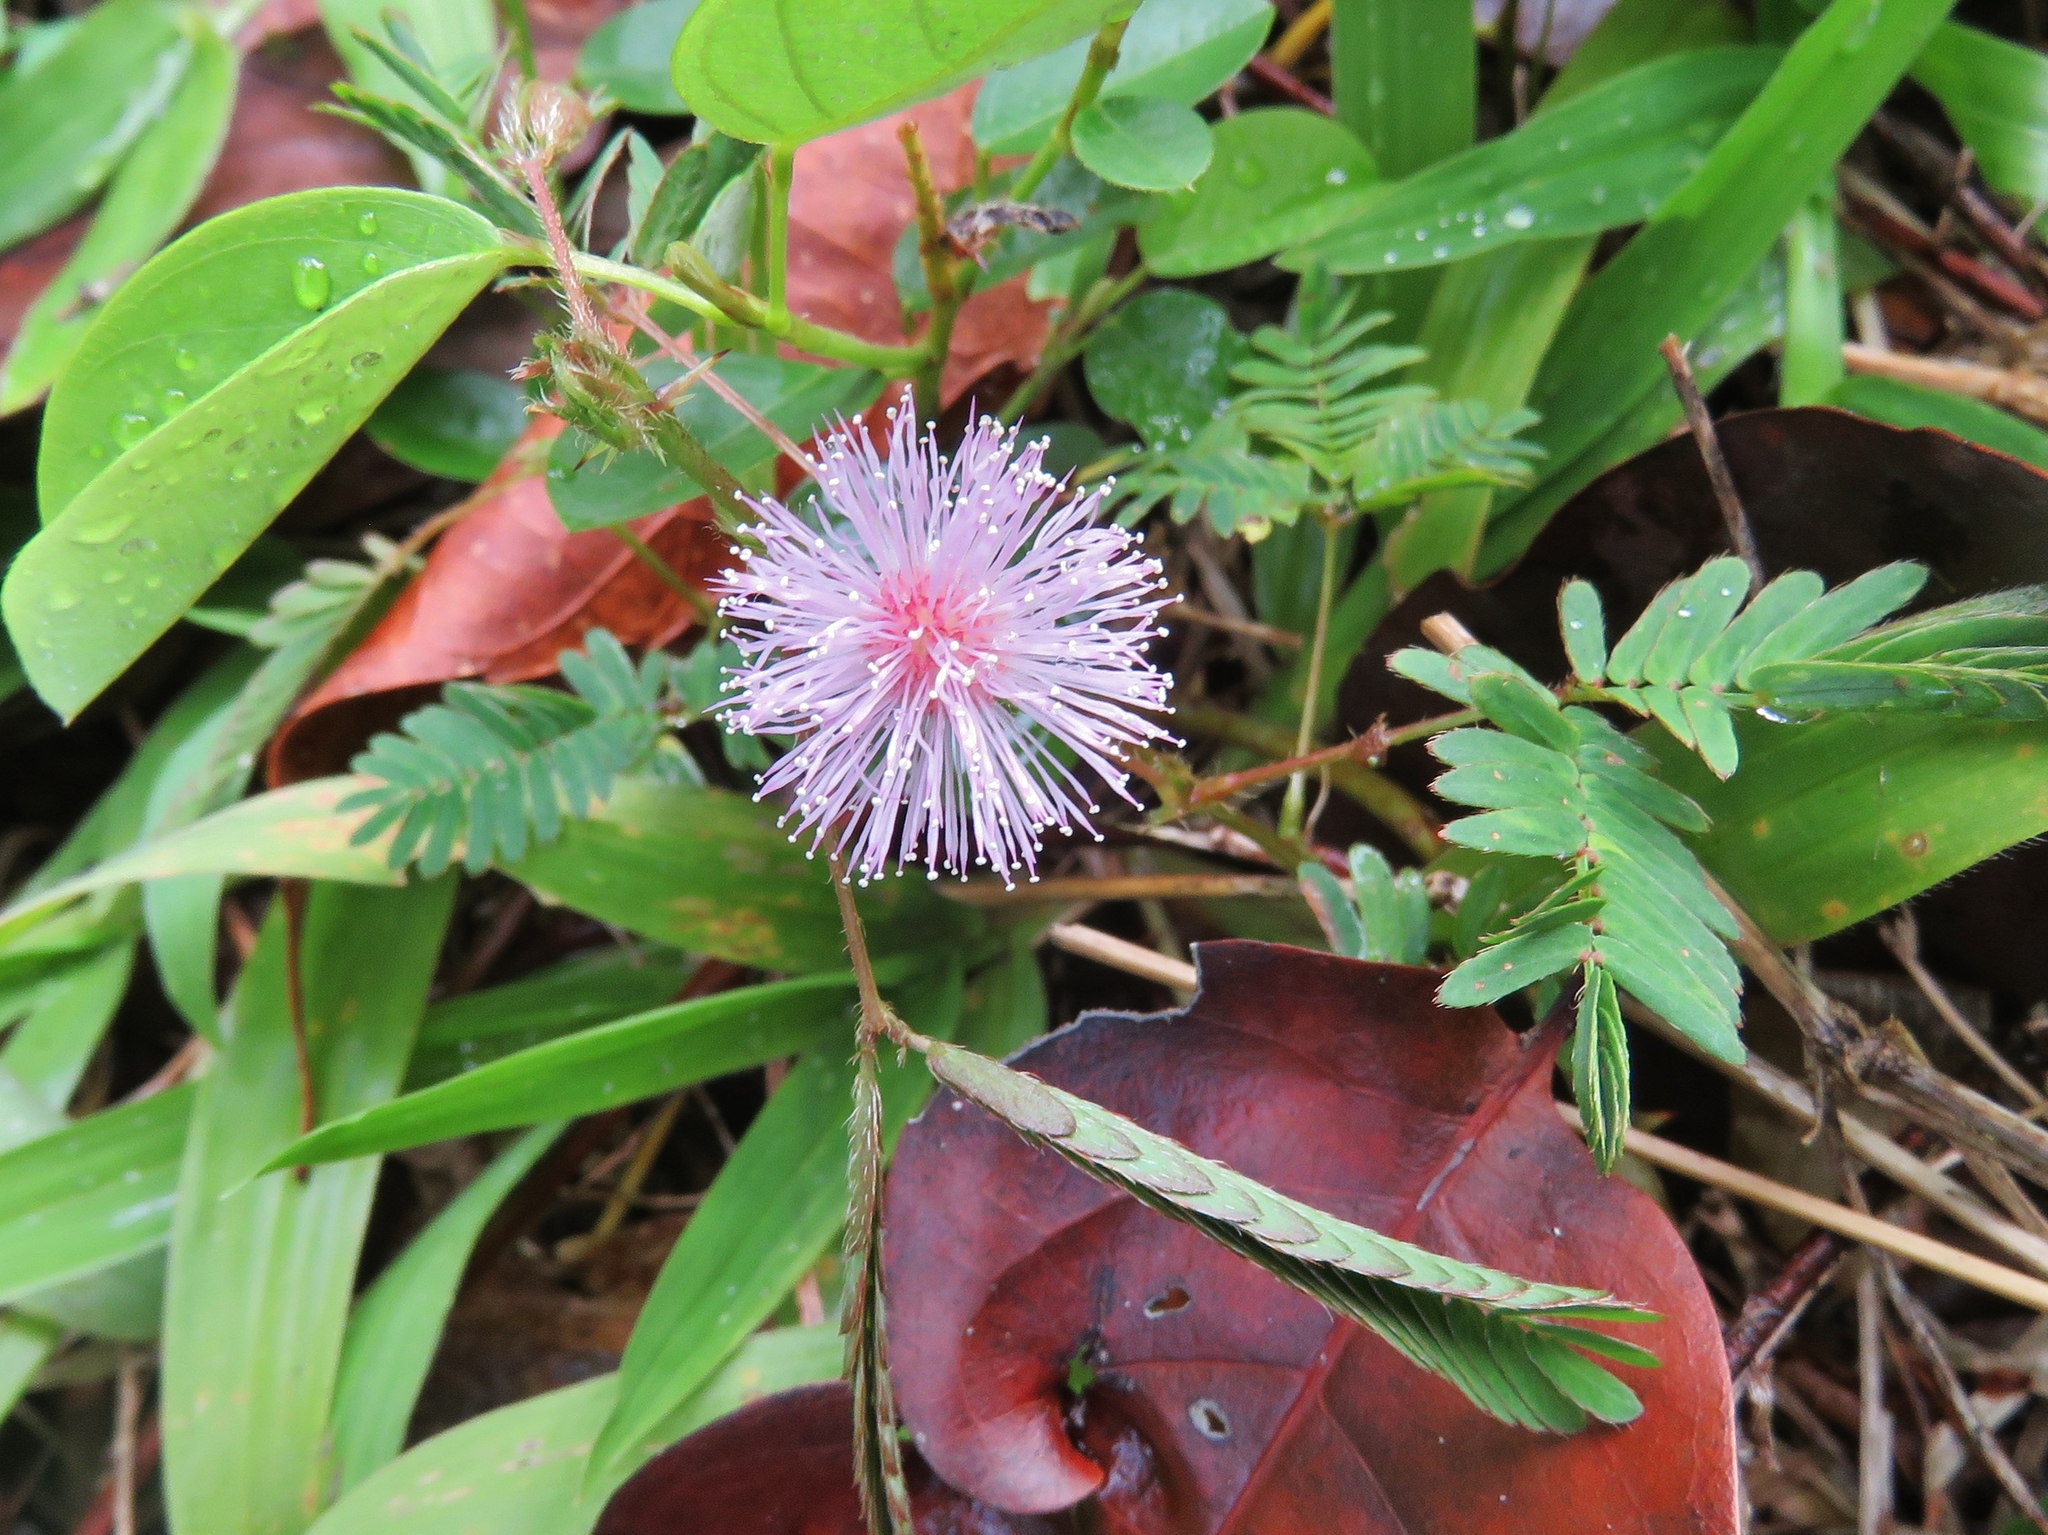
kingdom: Plantae
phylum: Tracheophyta
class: Magnoliopsida
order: Fabales
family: Fabaceae
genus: Mimosa
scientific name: Mimosa pudica
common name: Sensitive plant
